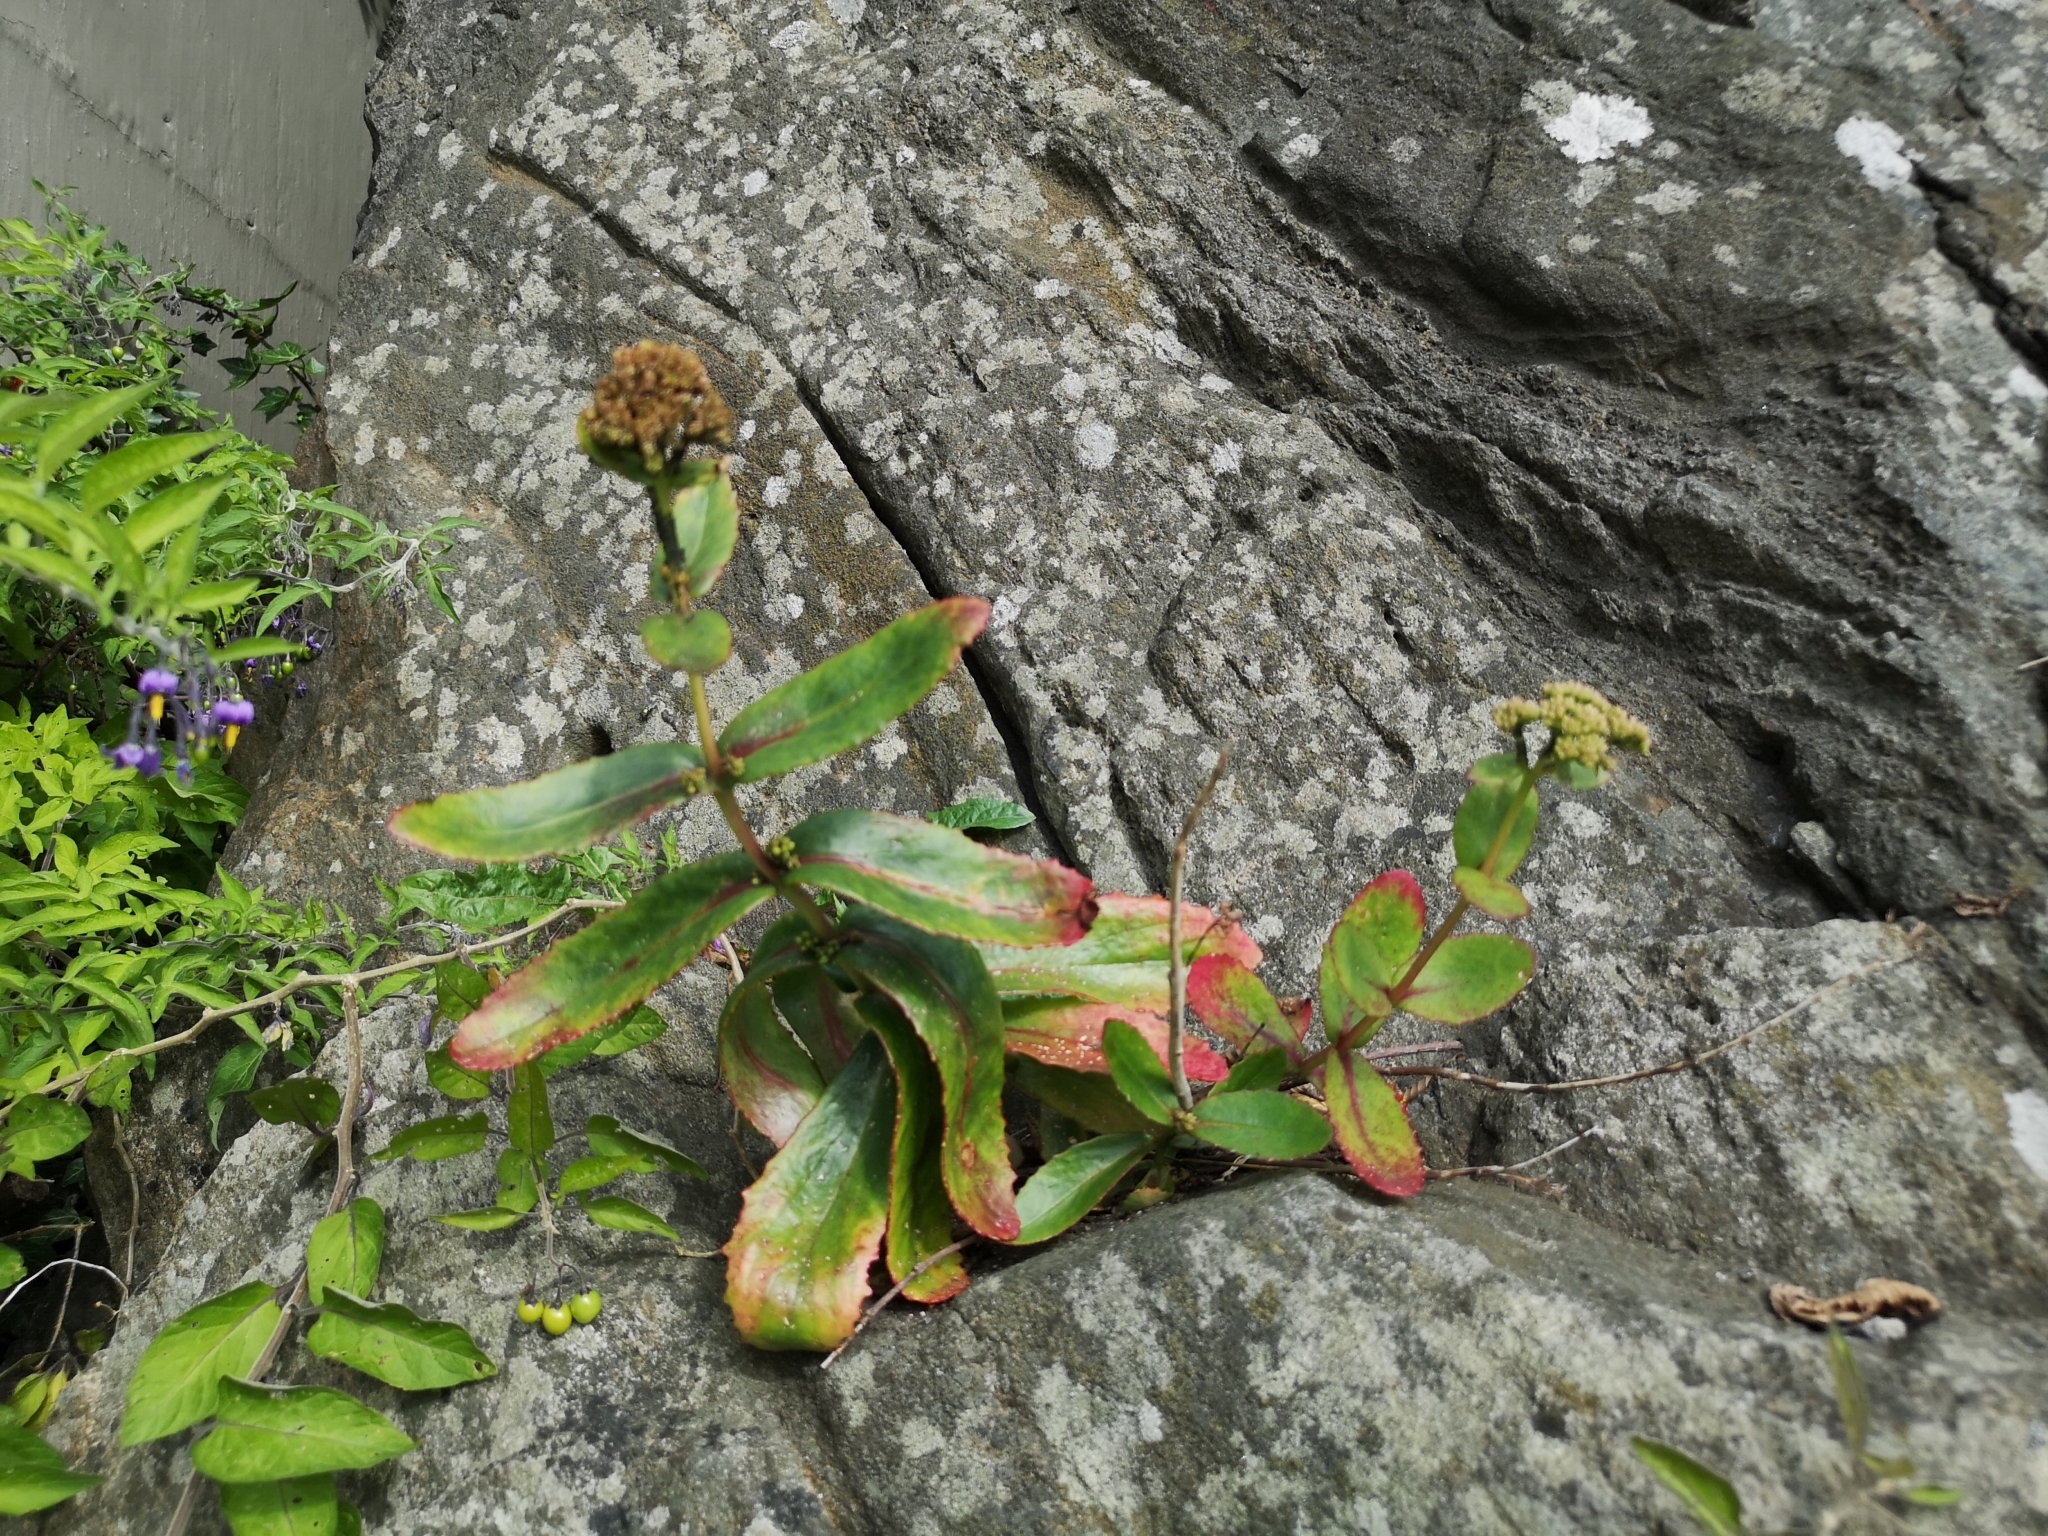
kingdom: Plantae
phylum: Tracheophyta
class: Magnoliopsida
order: Saxifragales
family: Crassulaceae
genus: Hylotelephium
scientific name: Hylotelephium maximum
